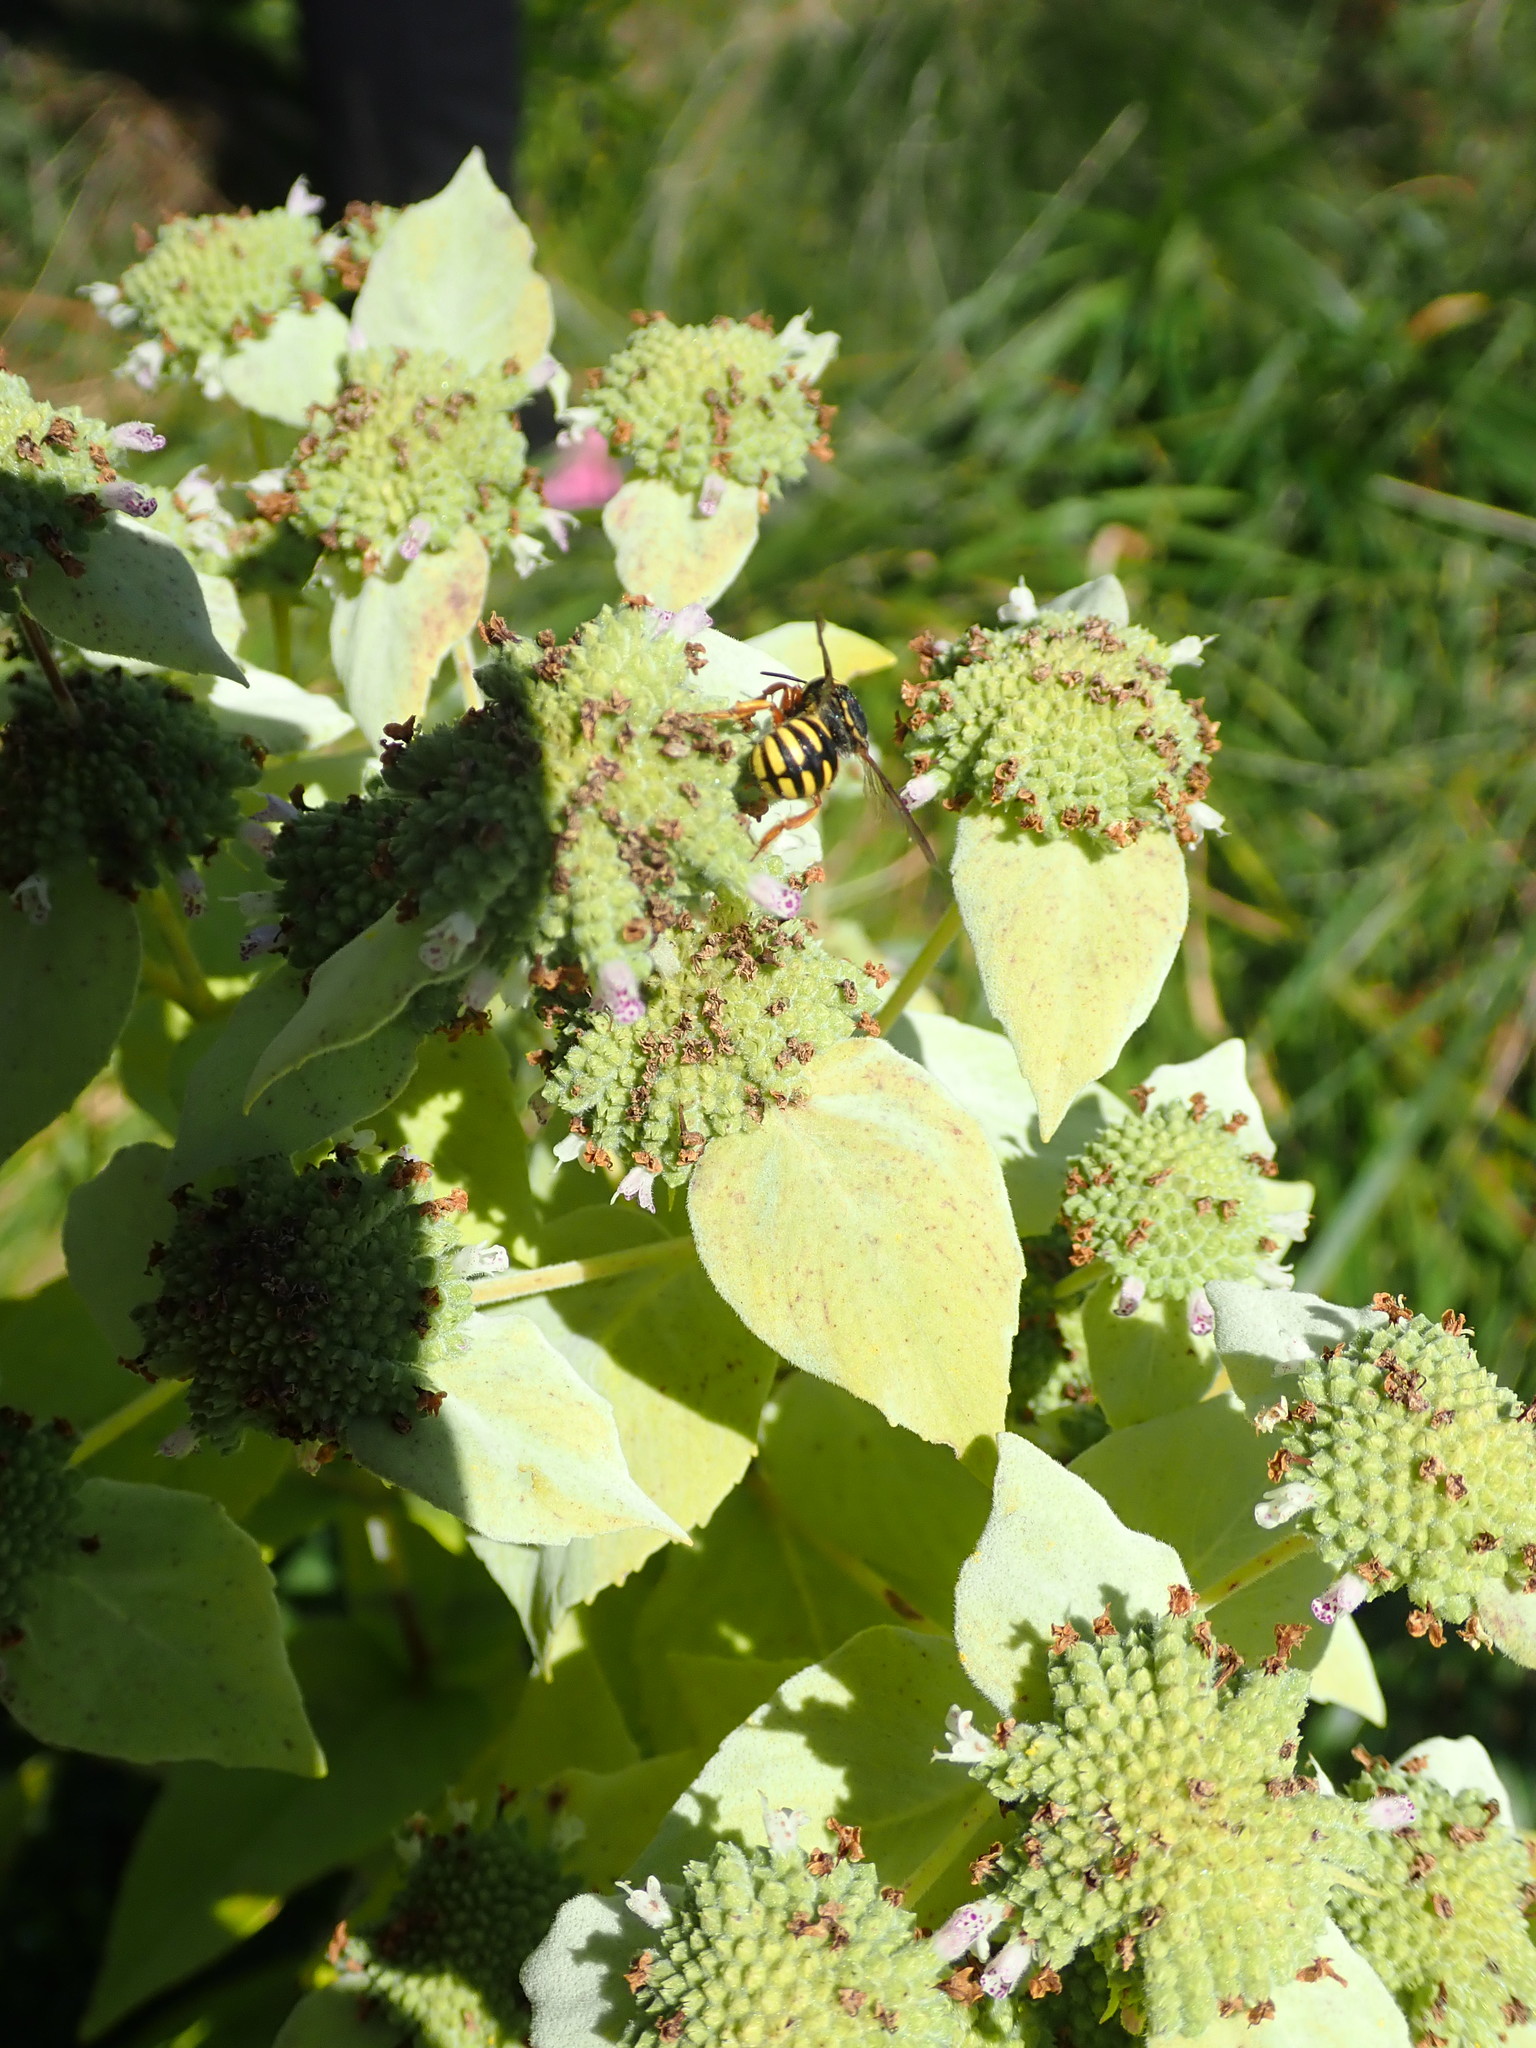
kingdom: Animalia
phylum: Arthropoda
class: Insecta
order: Hymenoptera
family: Megachilidae
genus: Anthidium
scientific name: Anthidium oblongatum
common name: Oblong wool carder bee
